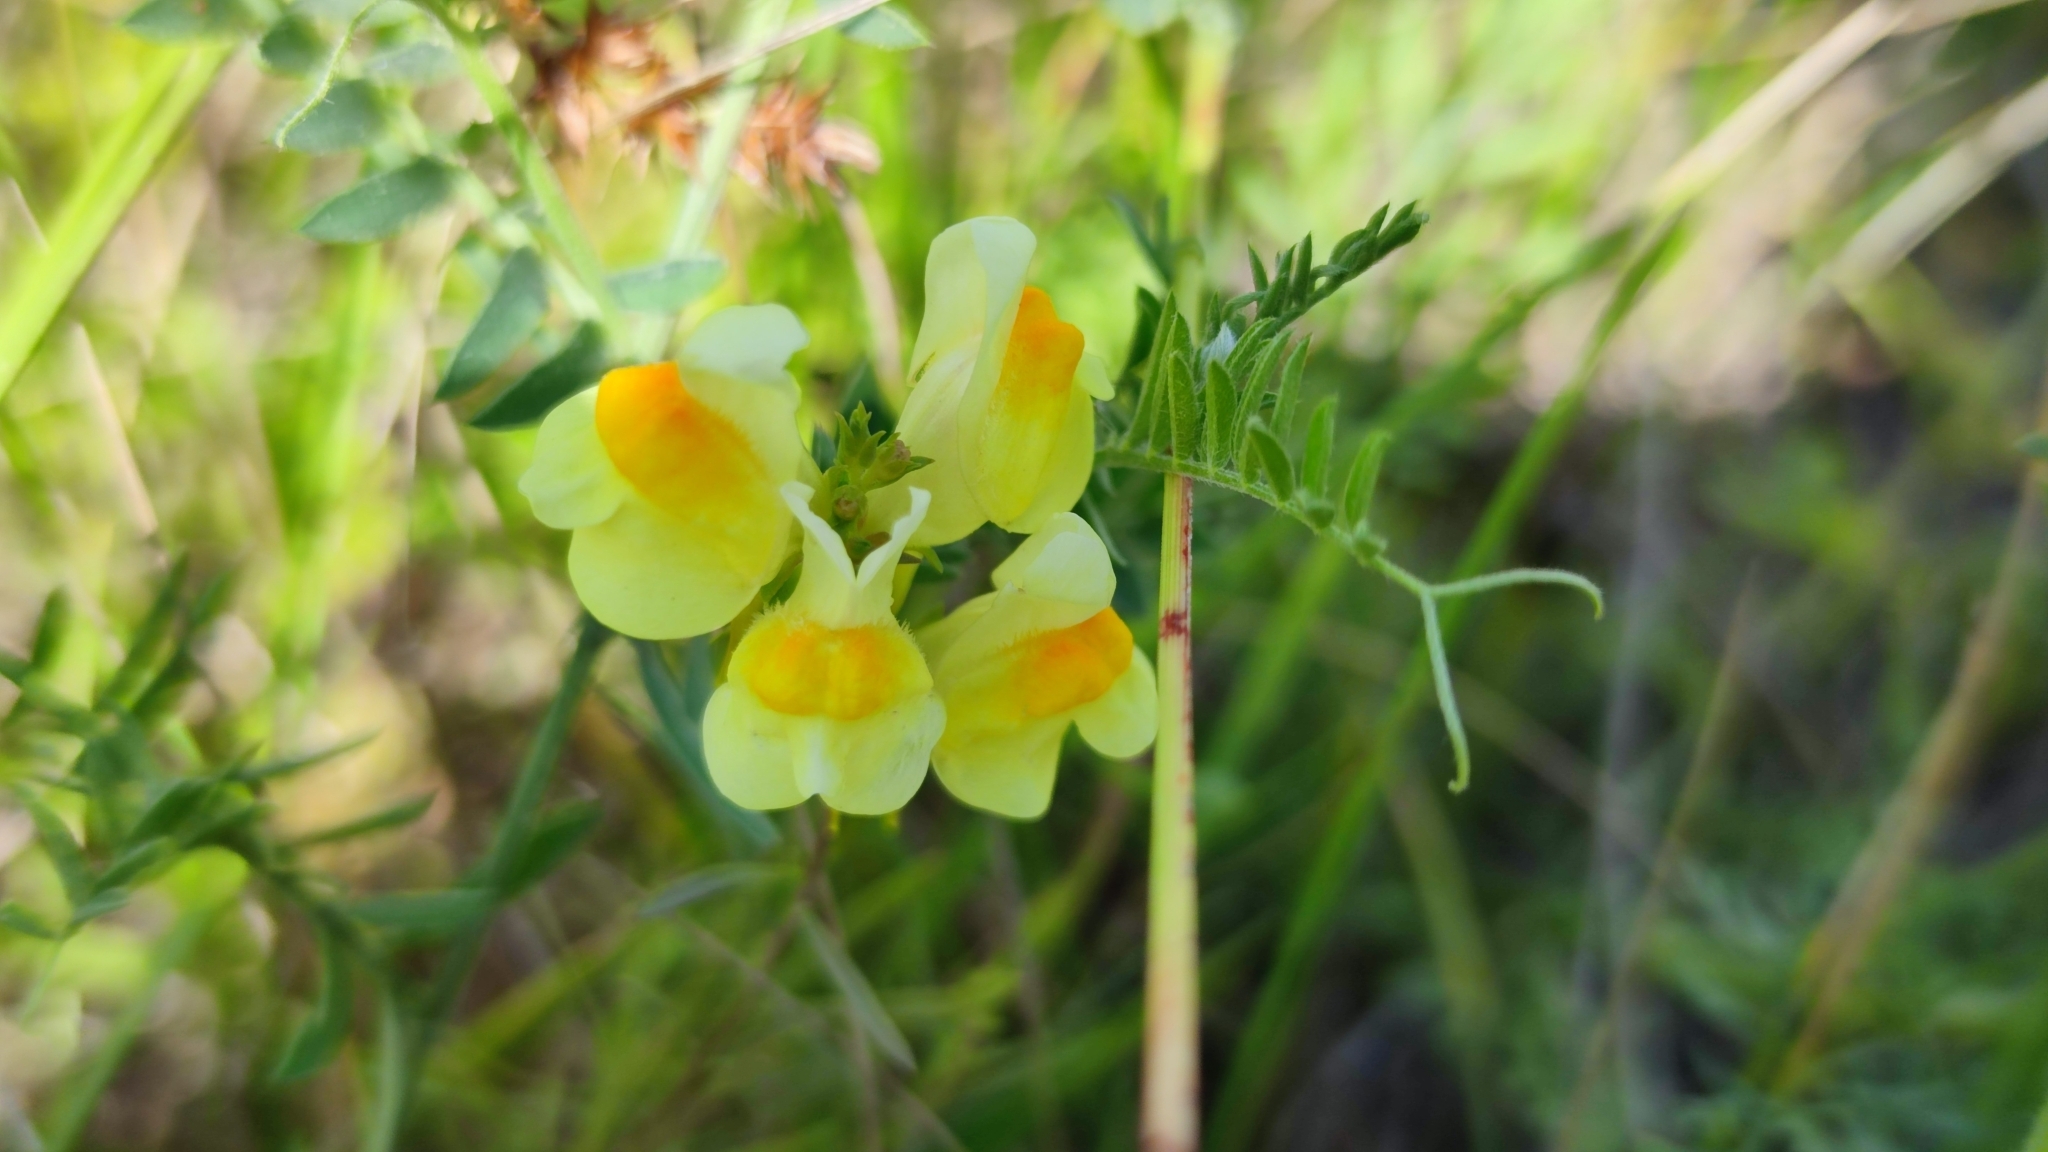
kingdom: Plantae
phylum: Tracheophyta
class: Magnoliopsida
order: Lamiales
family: Plantaginaceae
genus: Linaria
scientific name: Linaria vulgaris
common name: Butter and eggs
